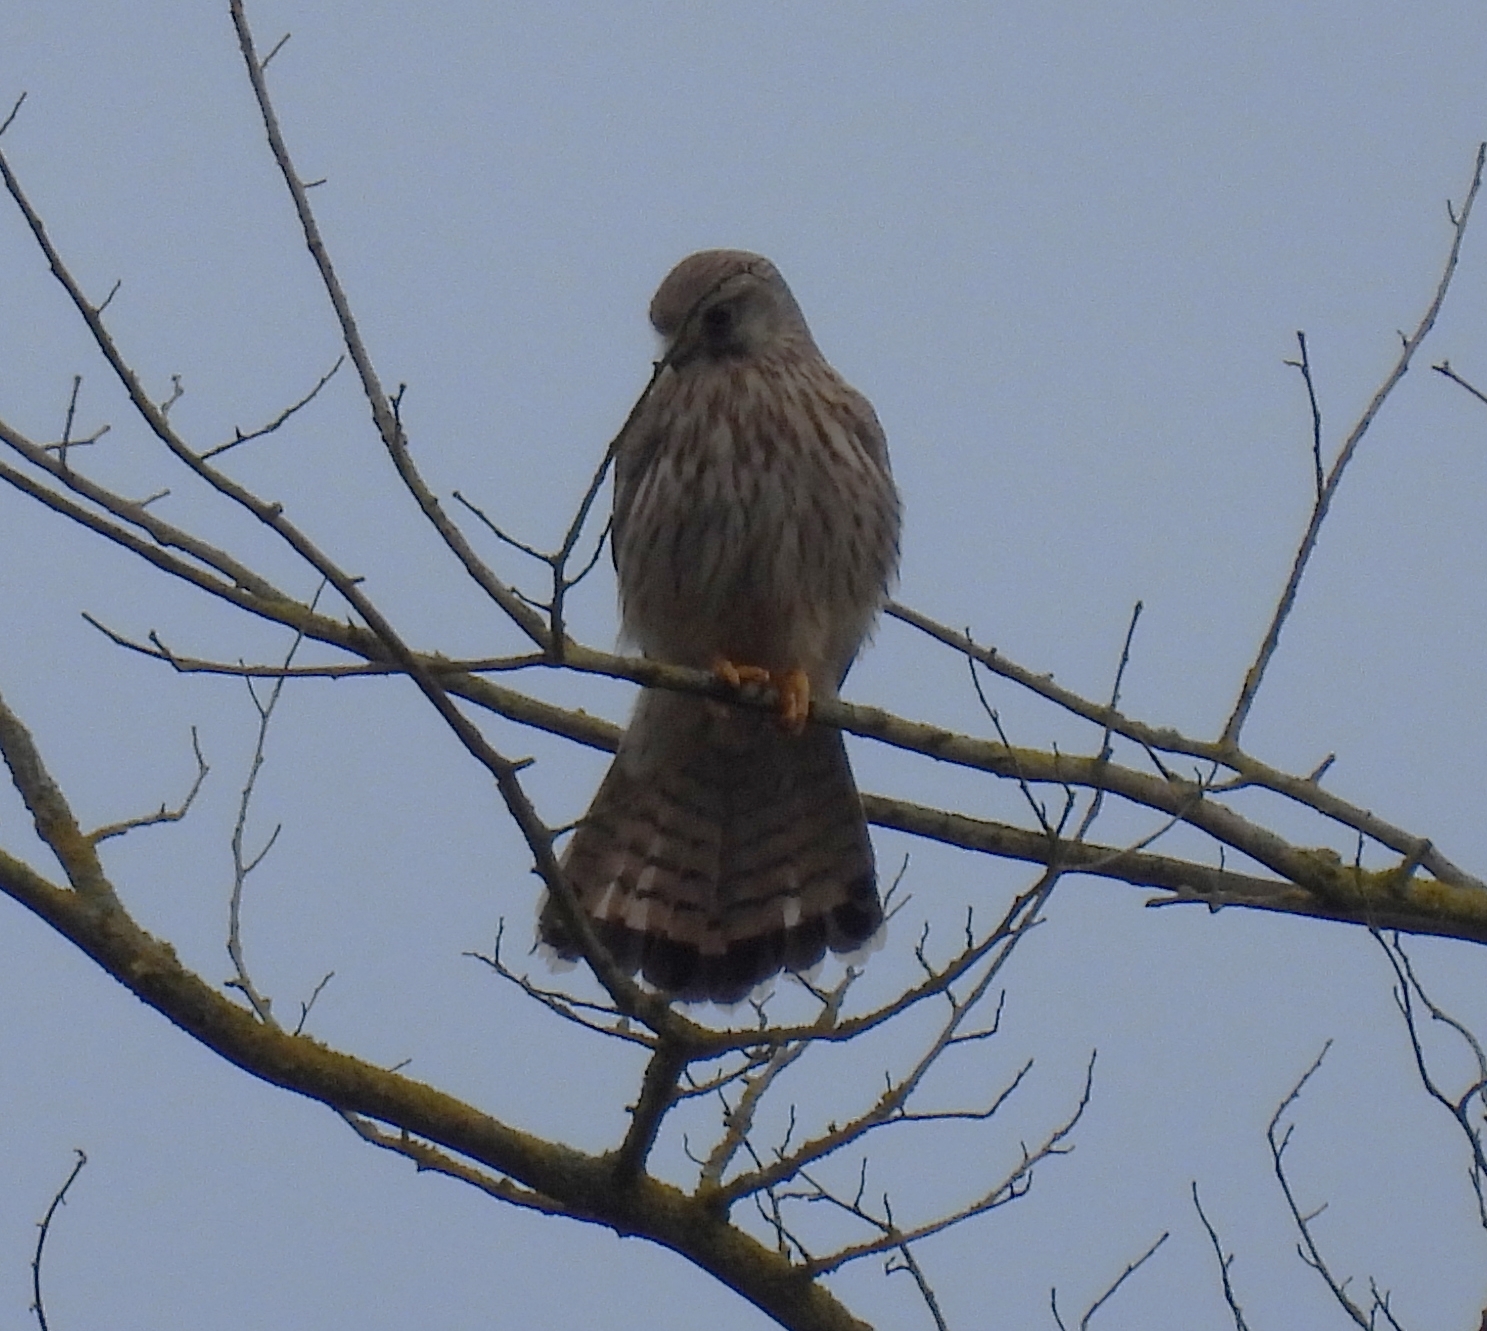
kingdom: Animalia
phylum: Chordata
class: Aves
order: Falconiformes
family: Falconidae
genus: Falco
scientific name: Falco tinnunculus
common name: Common kestrel
